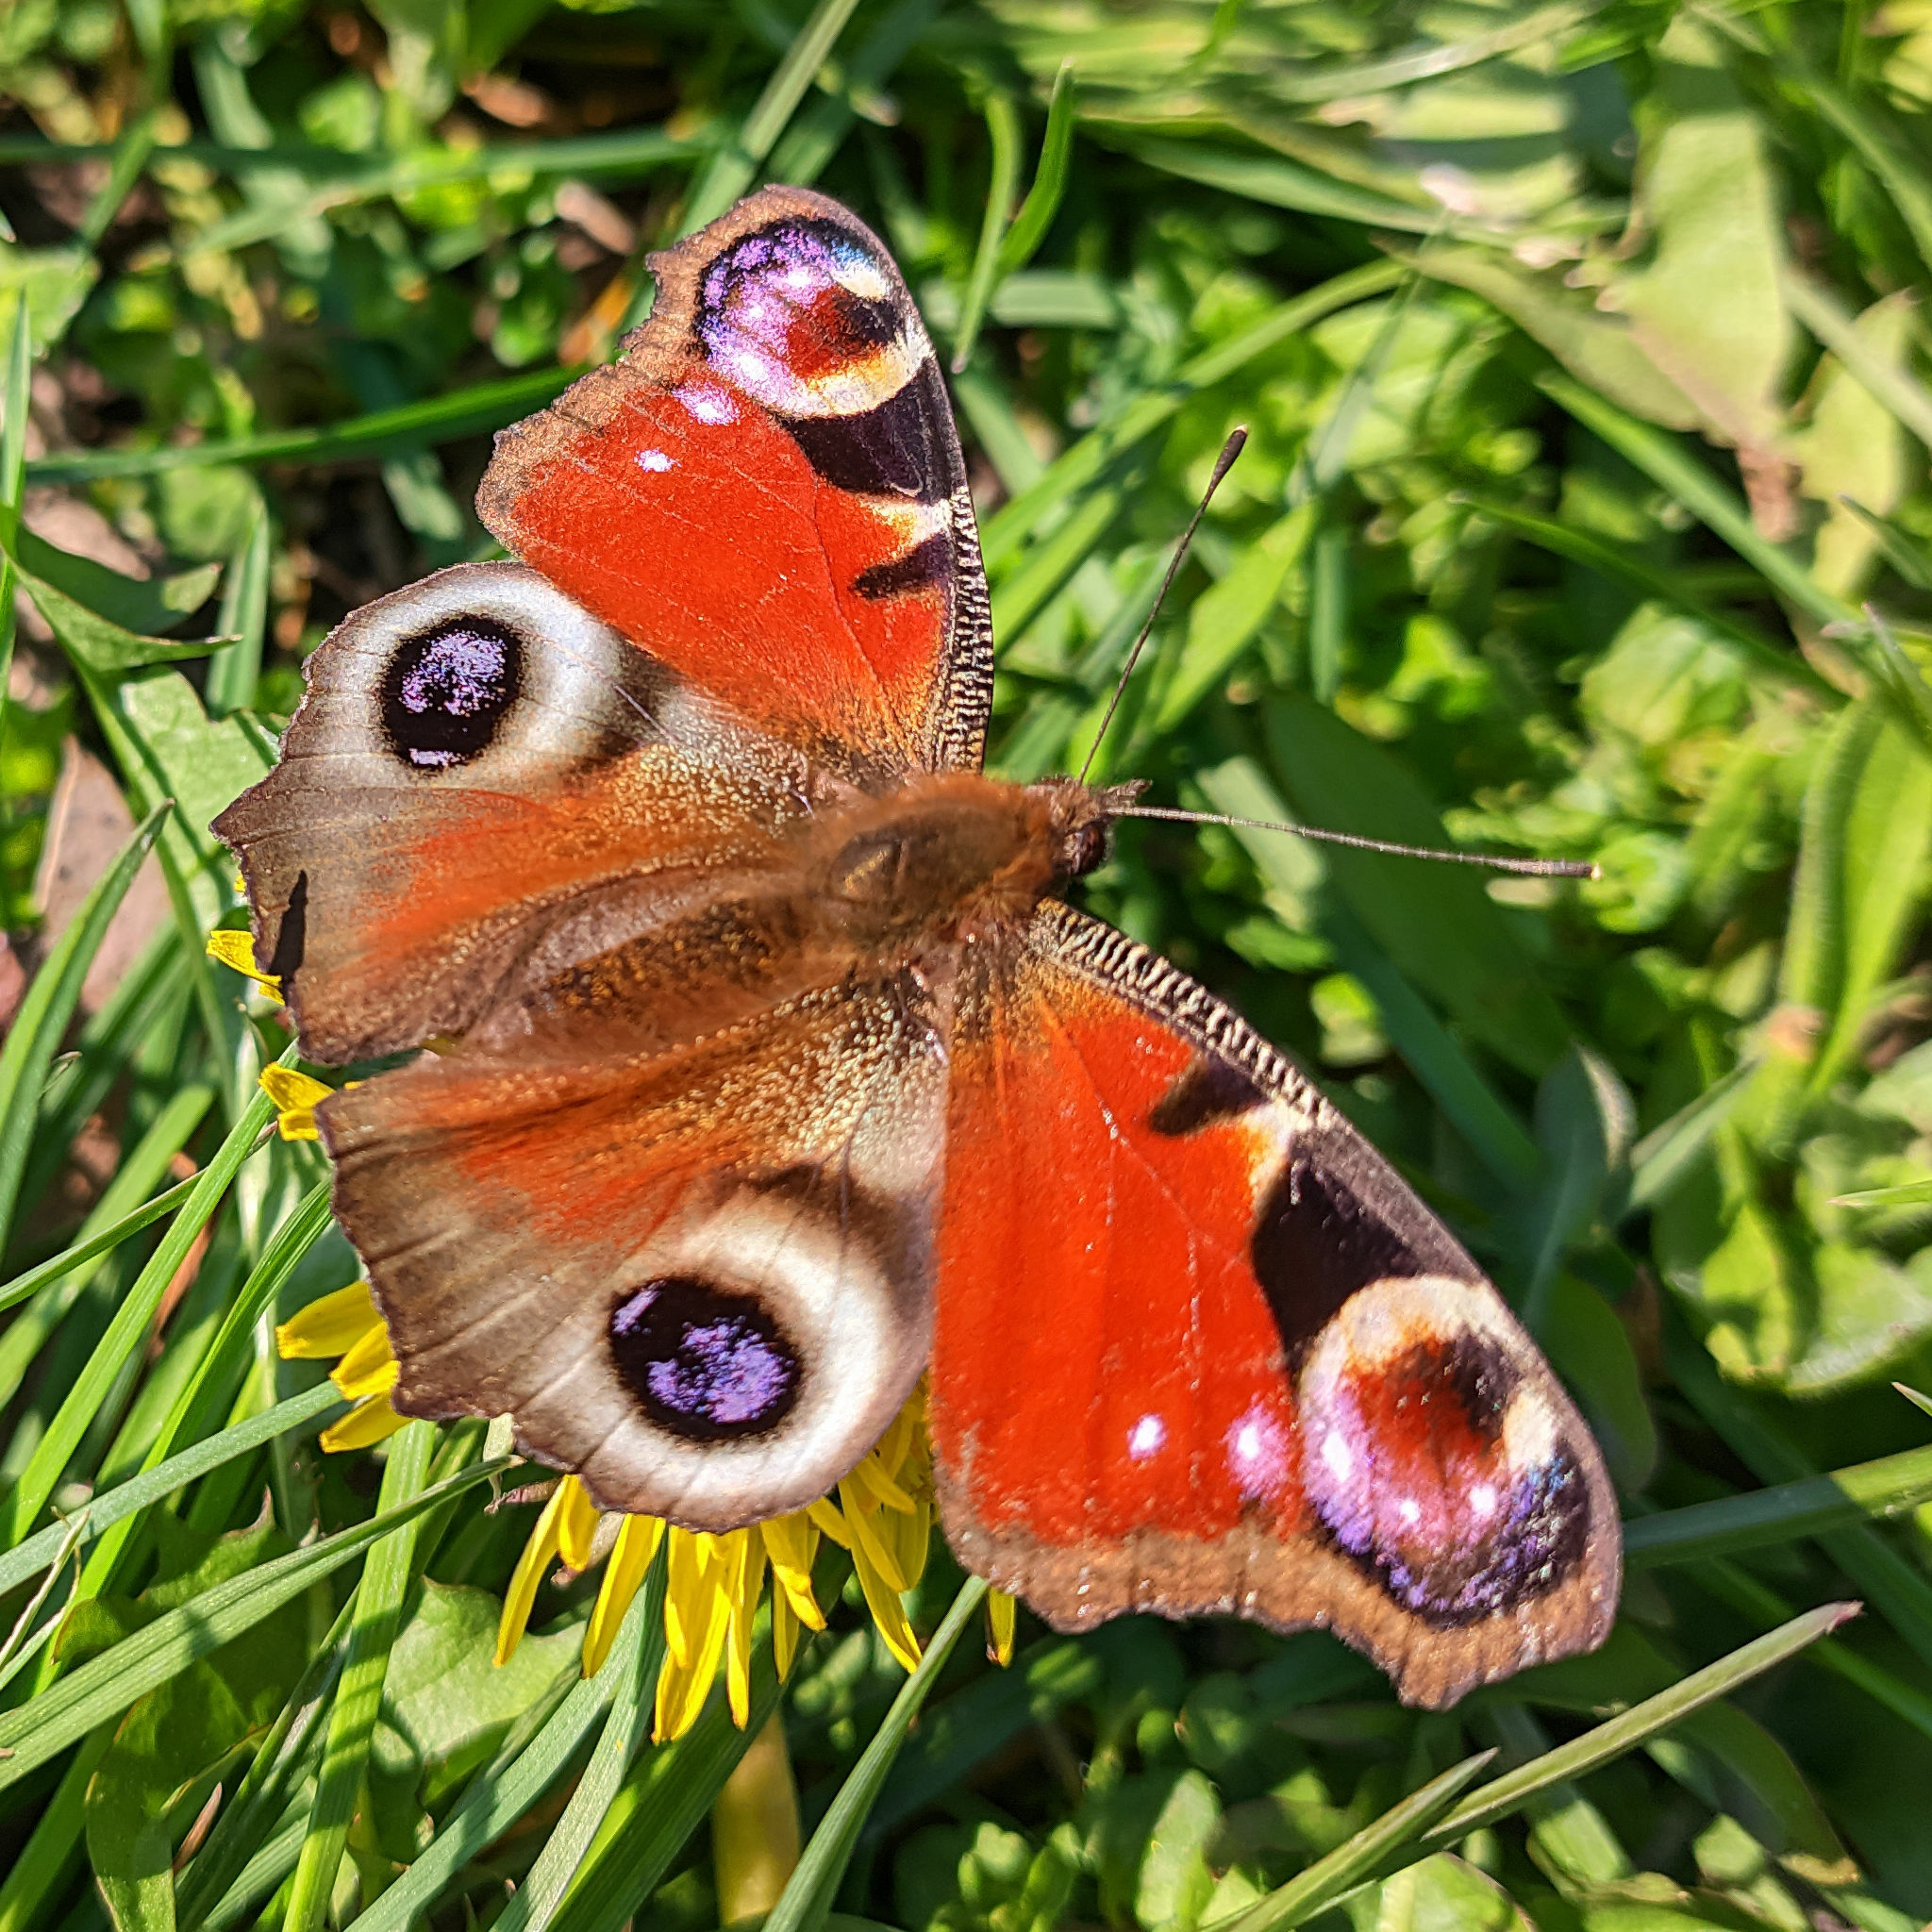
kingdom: Animalia
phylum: Arthropoda
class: Insecta
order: Lepidoptera
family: Nymphalidae
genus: Aglais
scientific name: Aglais io
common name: Peacock
